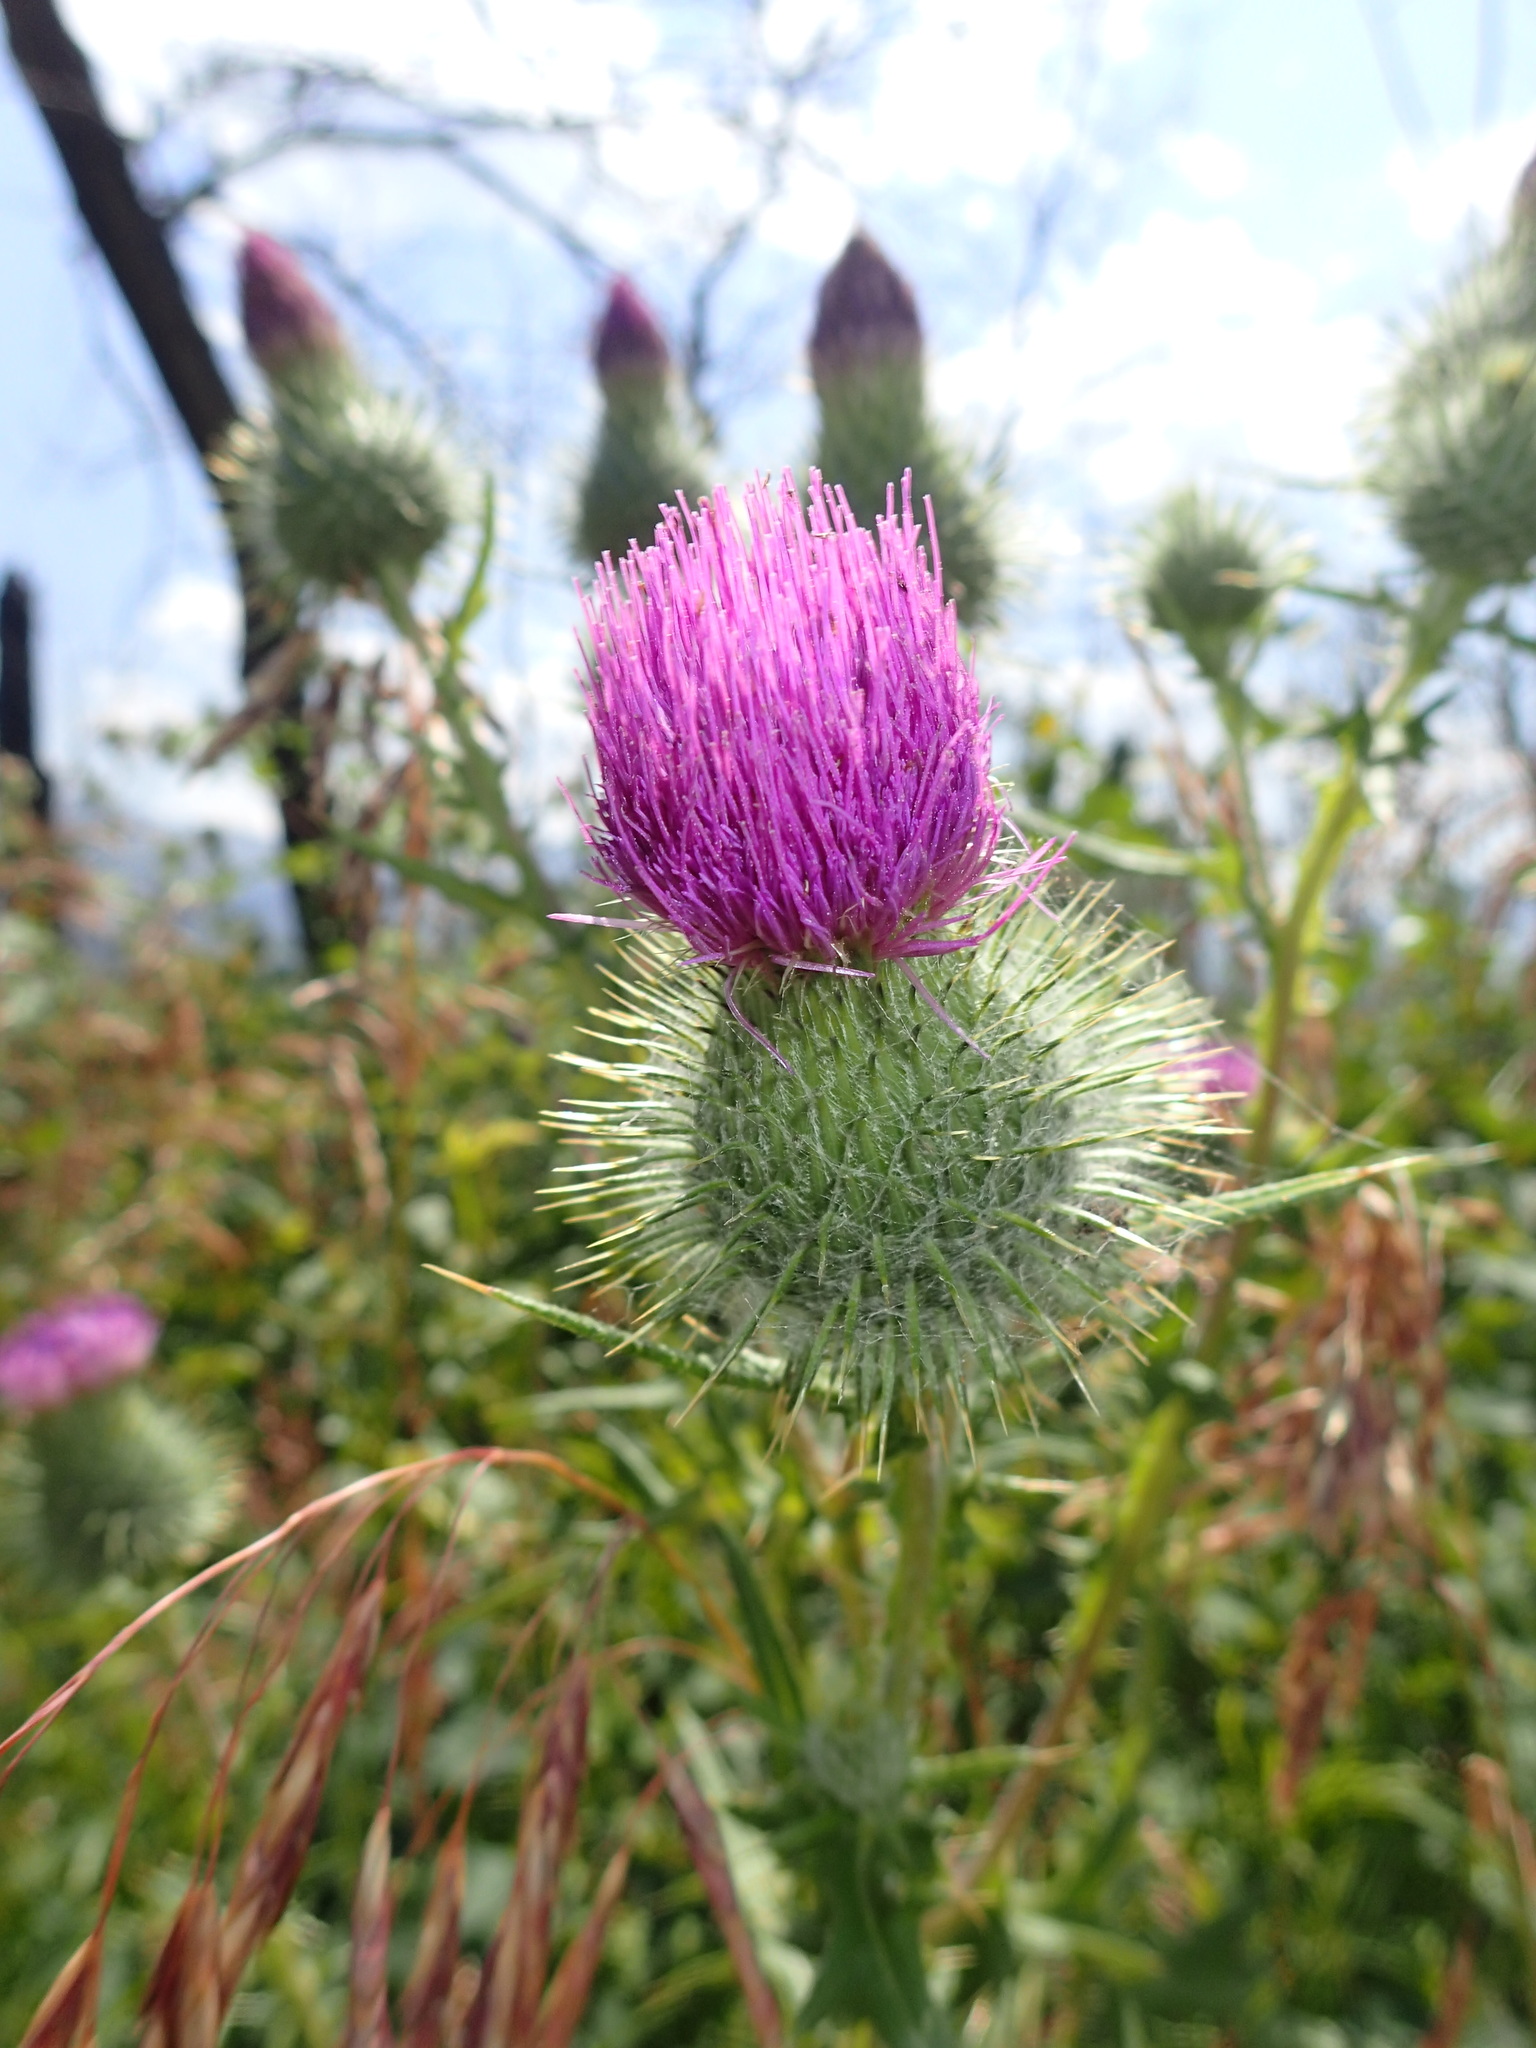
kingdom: Plantae
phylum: Tracheophyta
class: Magnoliopsida
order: Asterales
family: Asteraceae
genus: Cirsium
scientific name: Cirsium vulgare
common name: Bull thistle
